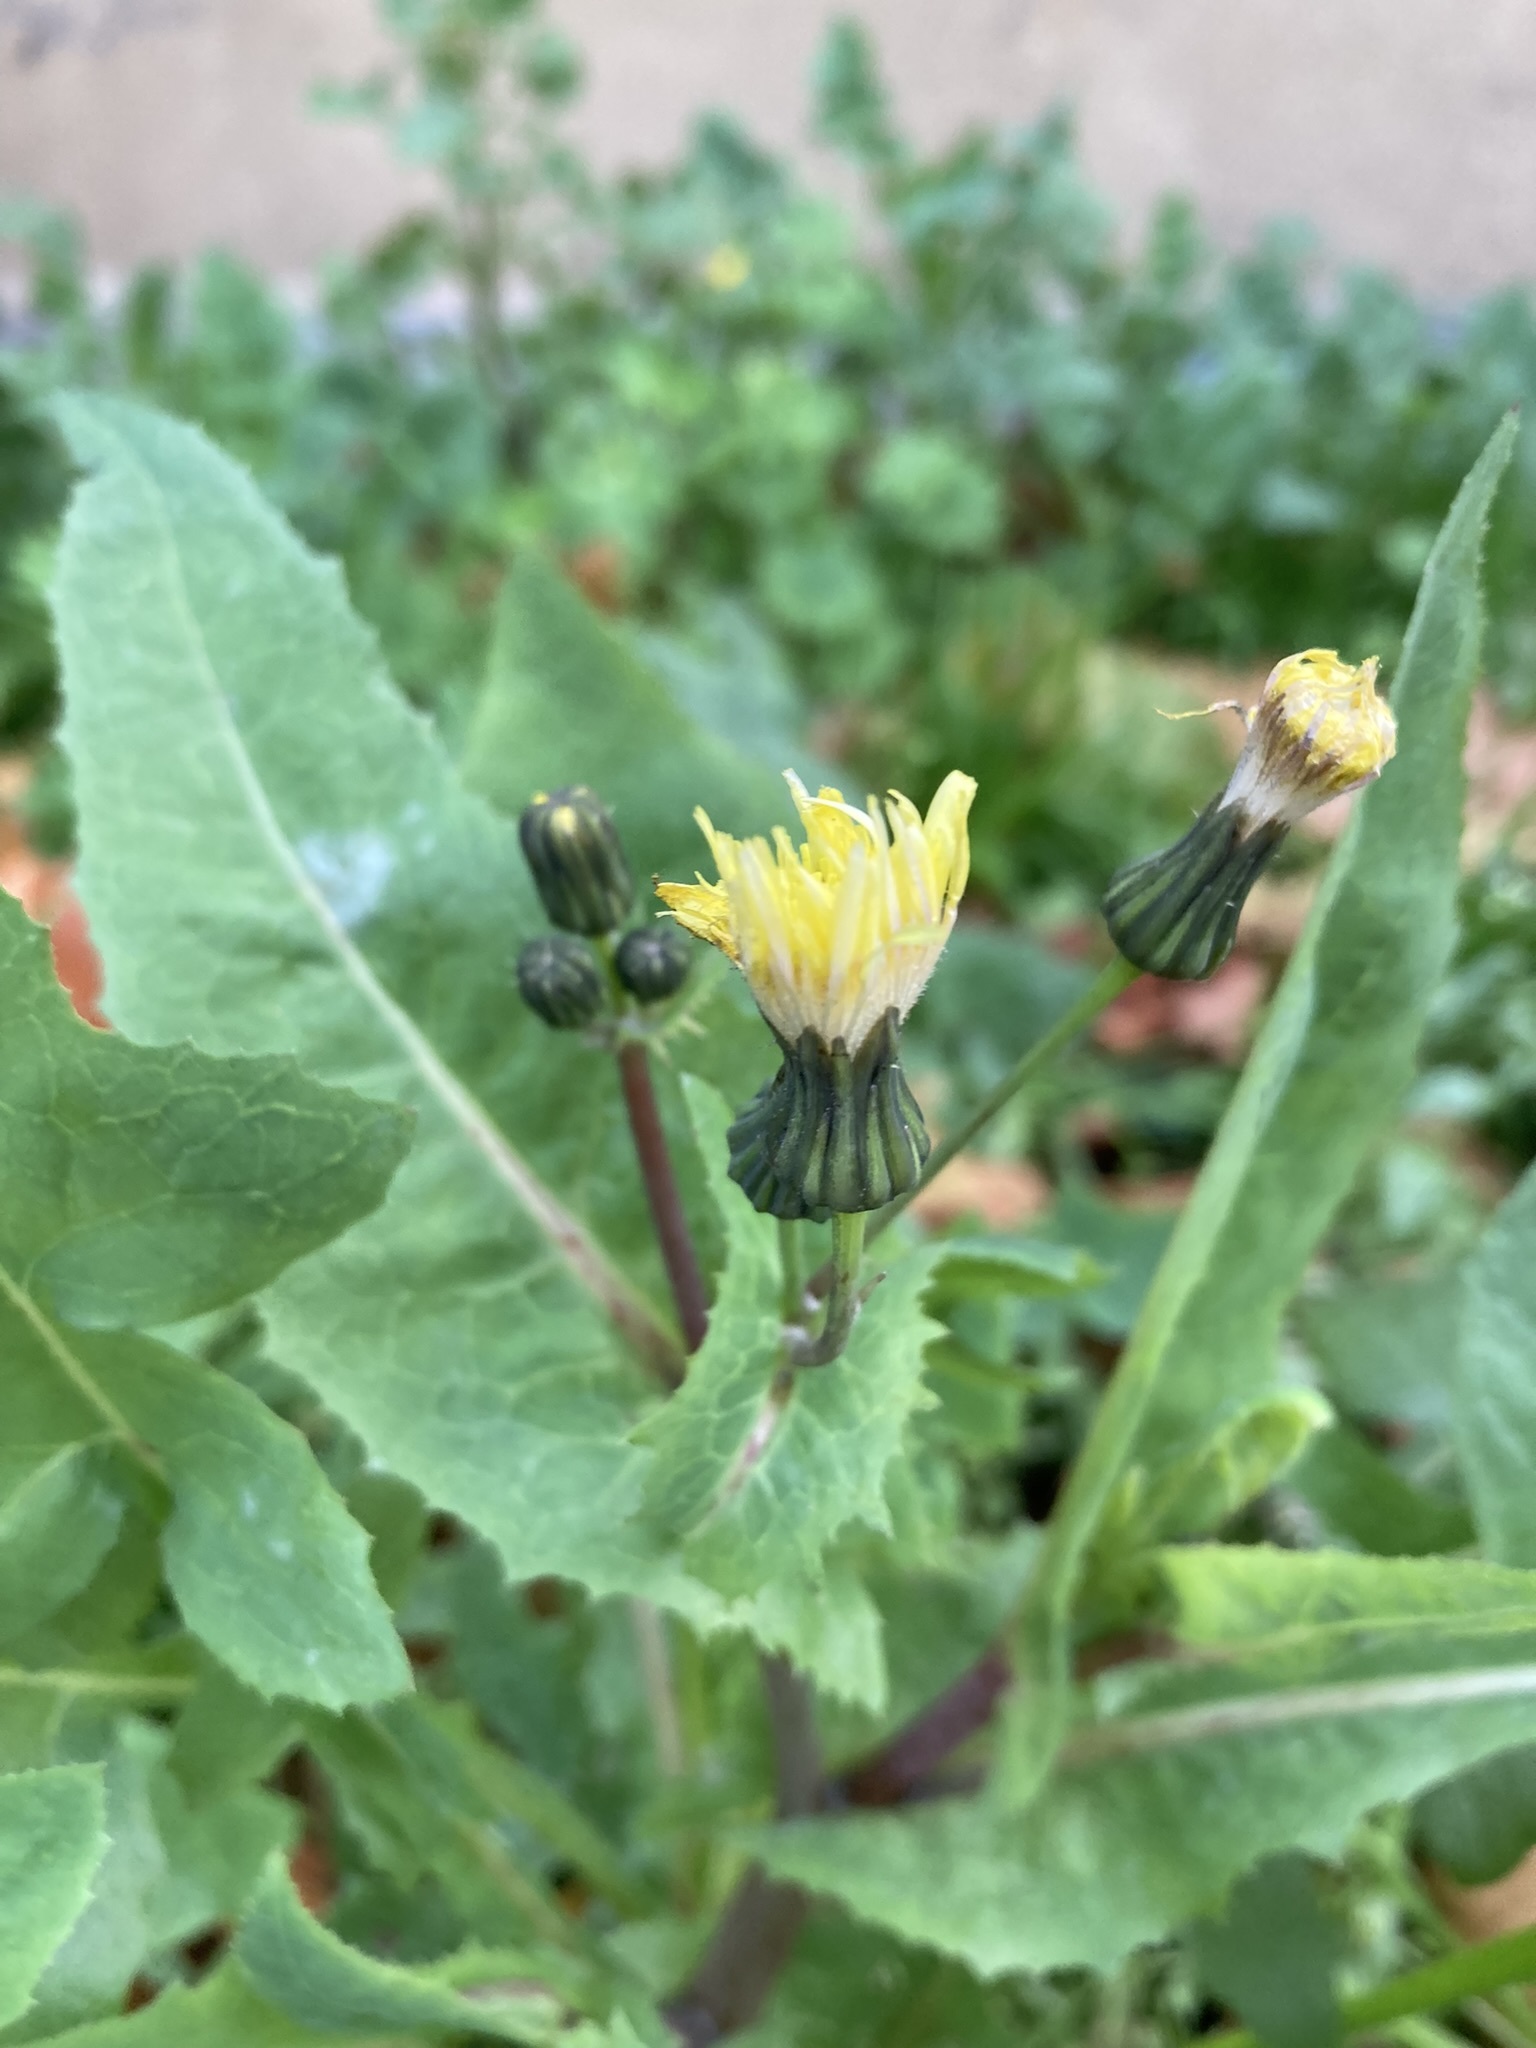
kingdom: Plantae
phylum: Tracheophyta
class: Magnoliopsida
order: Asterales
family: Asteraceae
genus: Sonchus
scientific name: Sonchus oleraceus
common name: Common sowthistle
